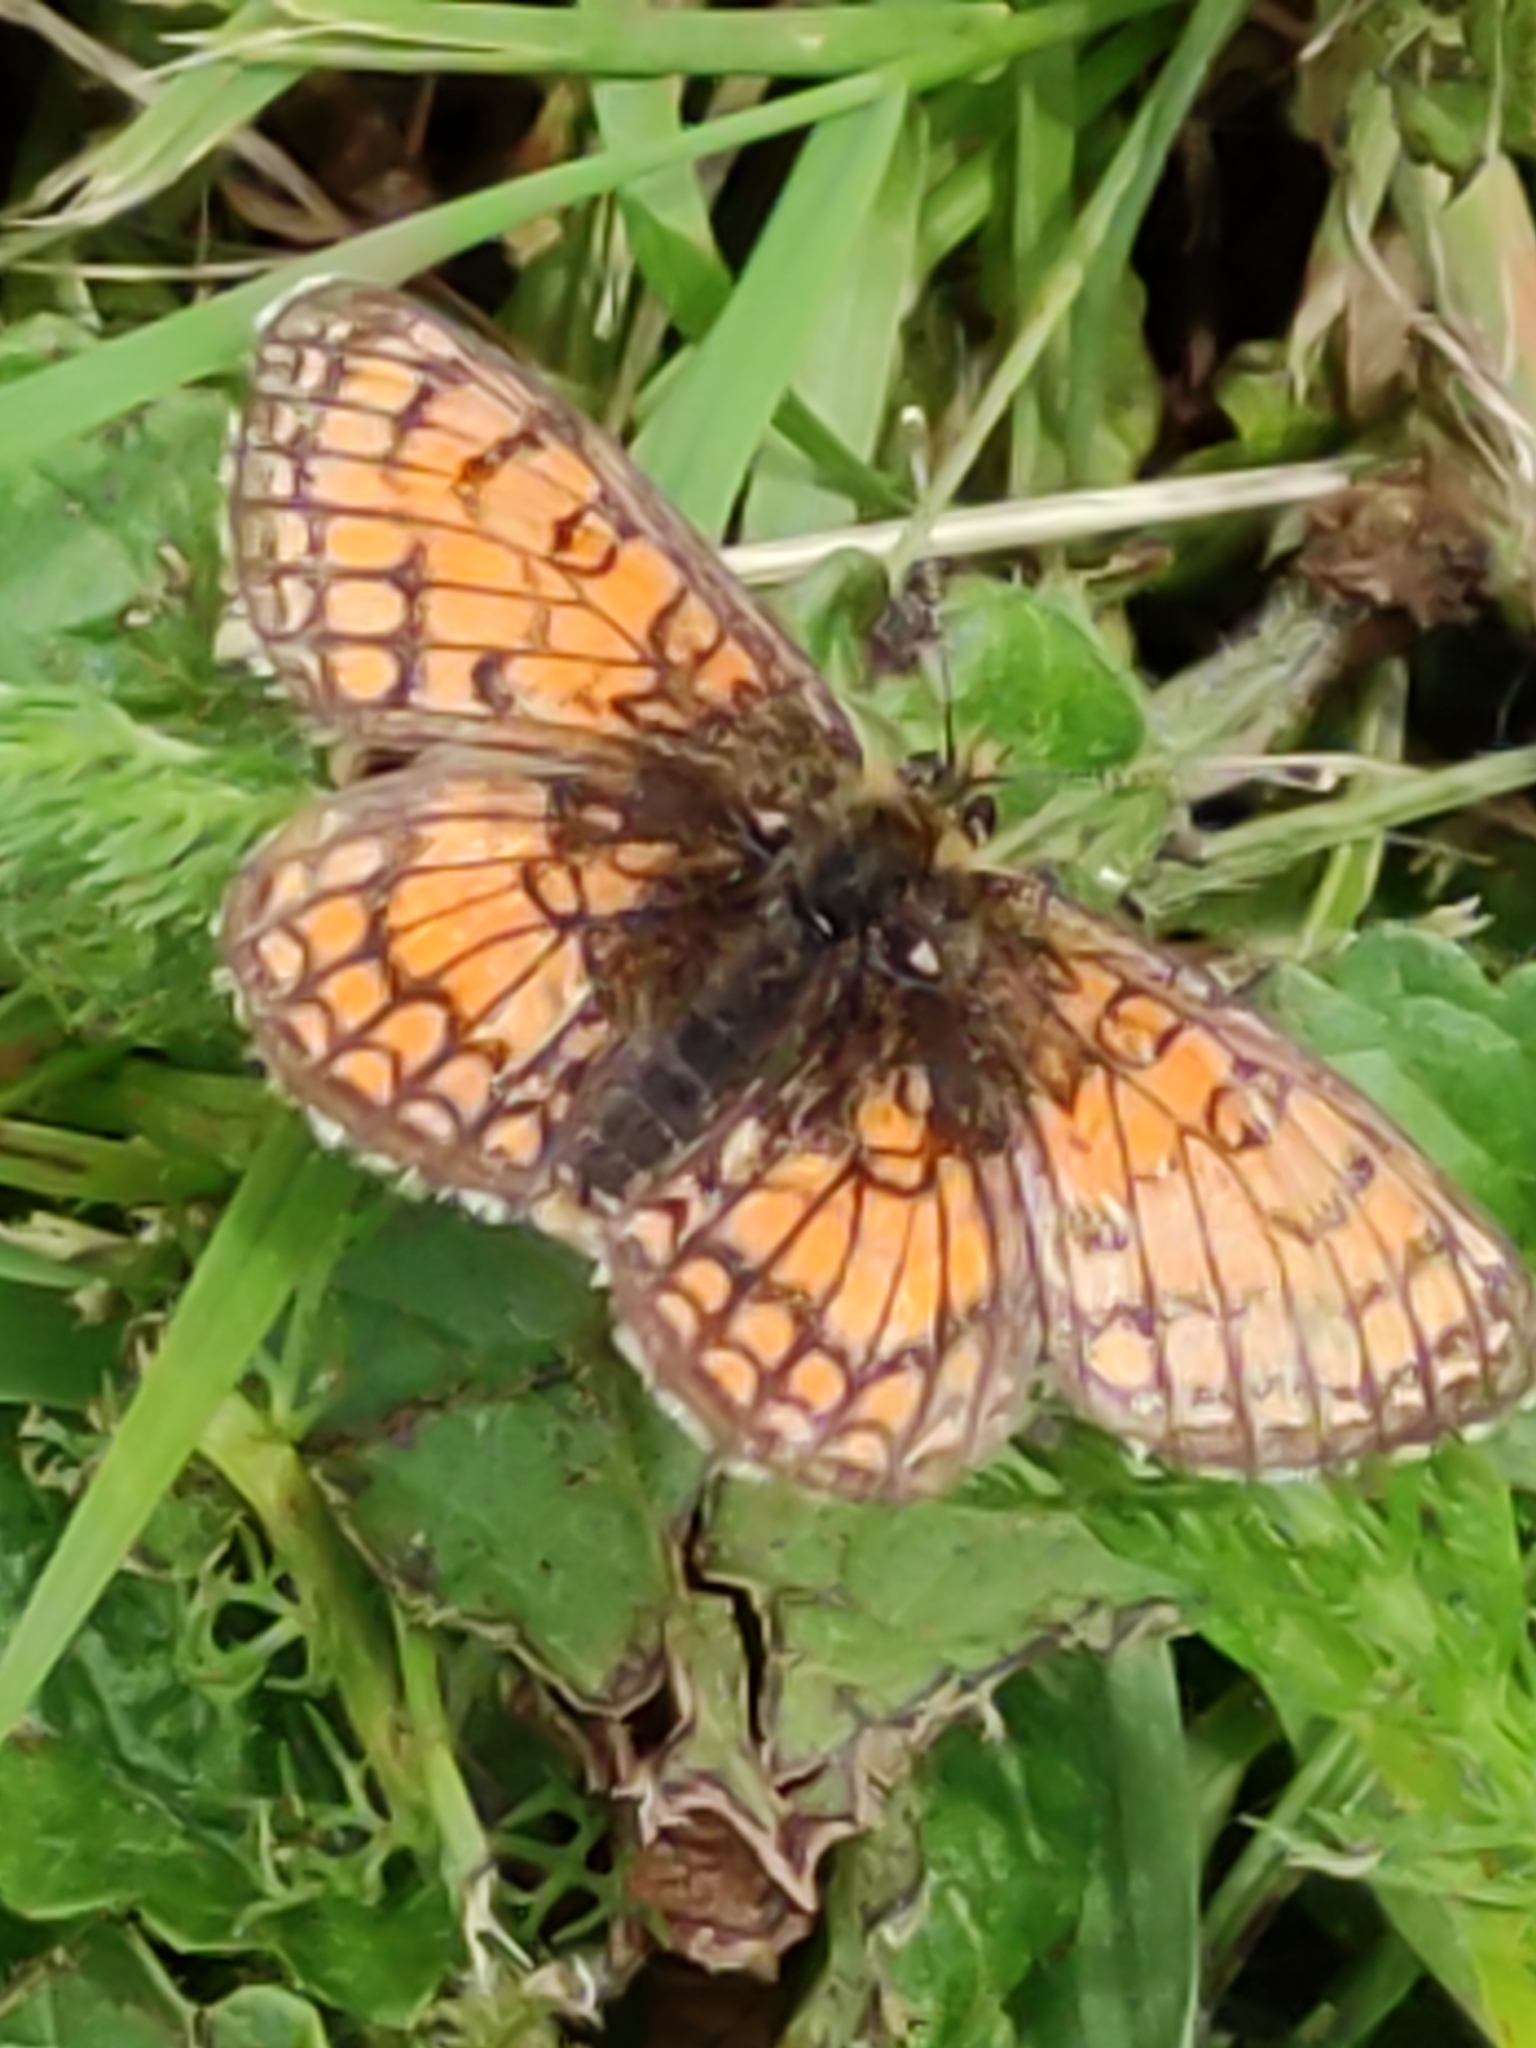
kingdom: Animalia
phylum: Arthropoda
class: Insecta
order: Lepidoptera
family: Nymphalidae
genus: Mellicta
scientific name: Mellicta parthenoides
